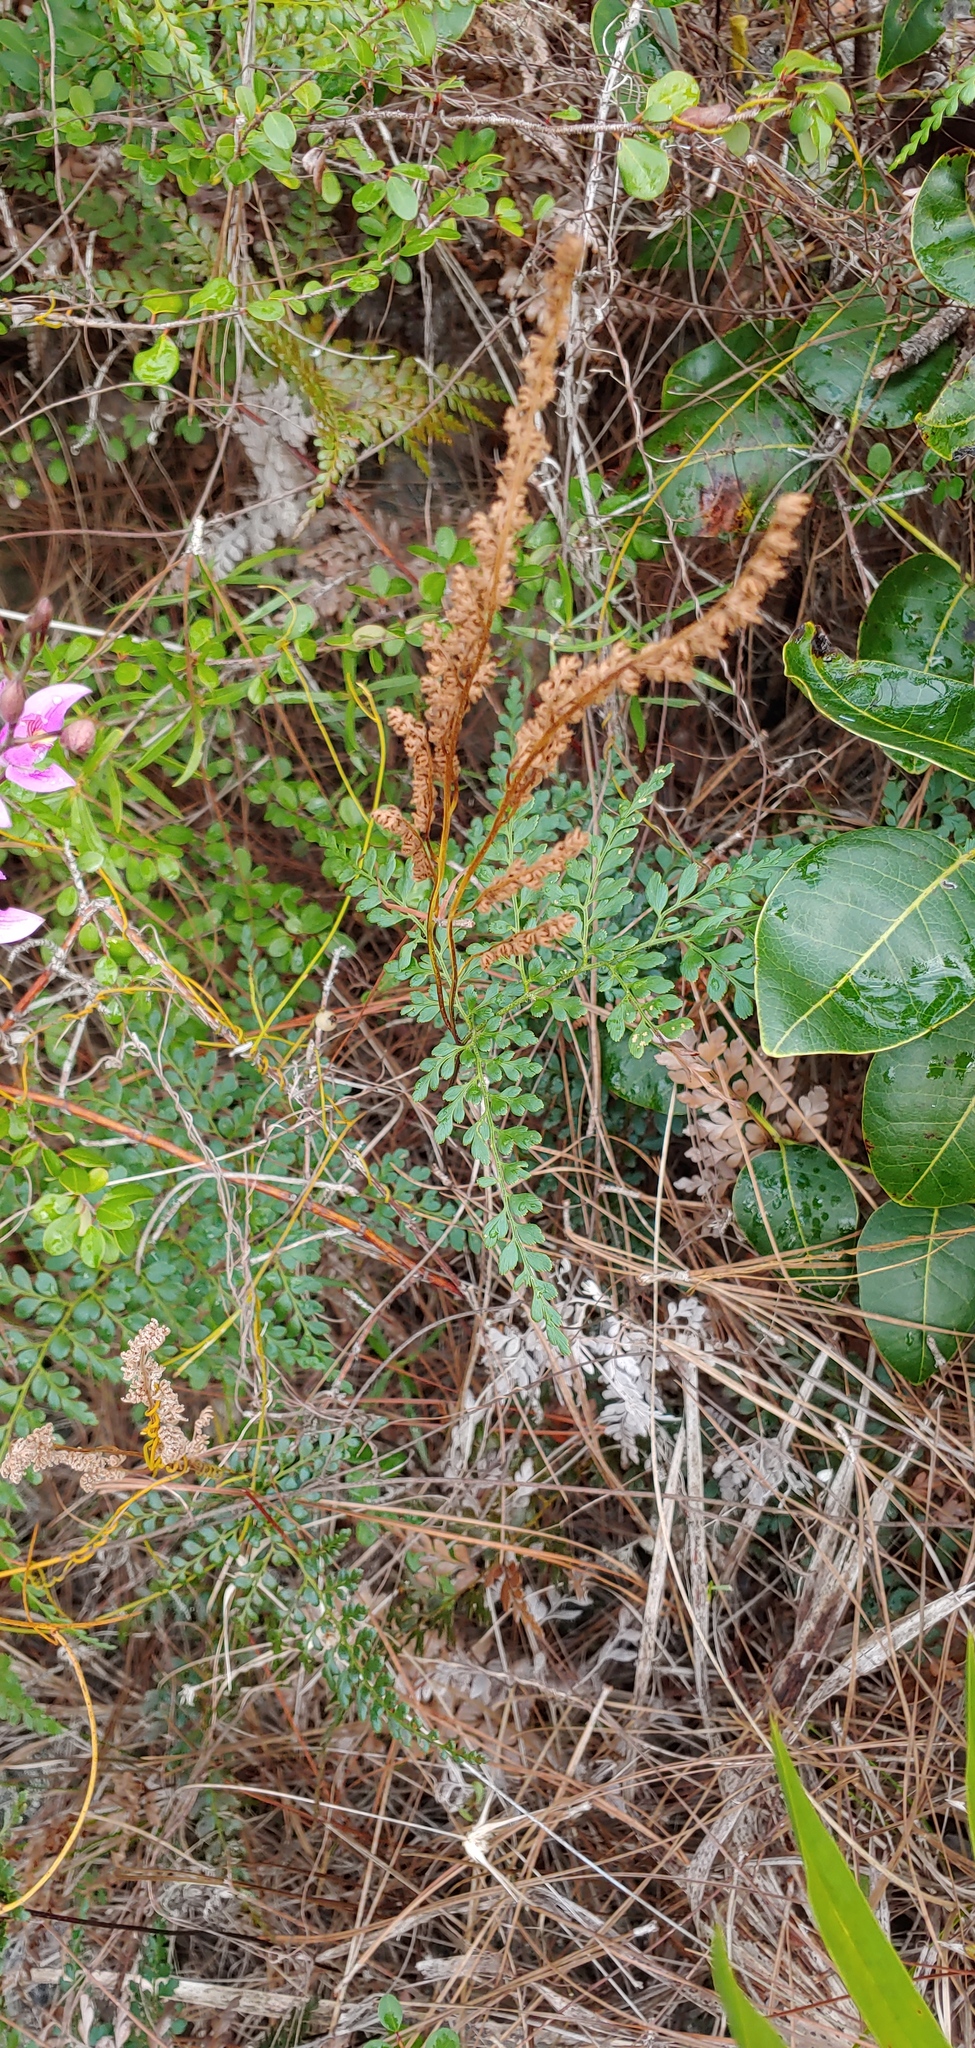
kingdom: Plantae
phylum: Tracheophyta
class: Polypodiopsida
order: Schizaeales
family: Anemiaceae
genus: Anemia
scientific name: Anemia adiantifolia
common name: Pine fern
